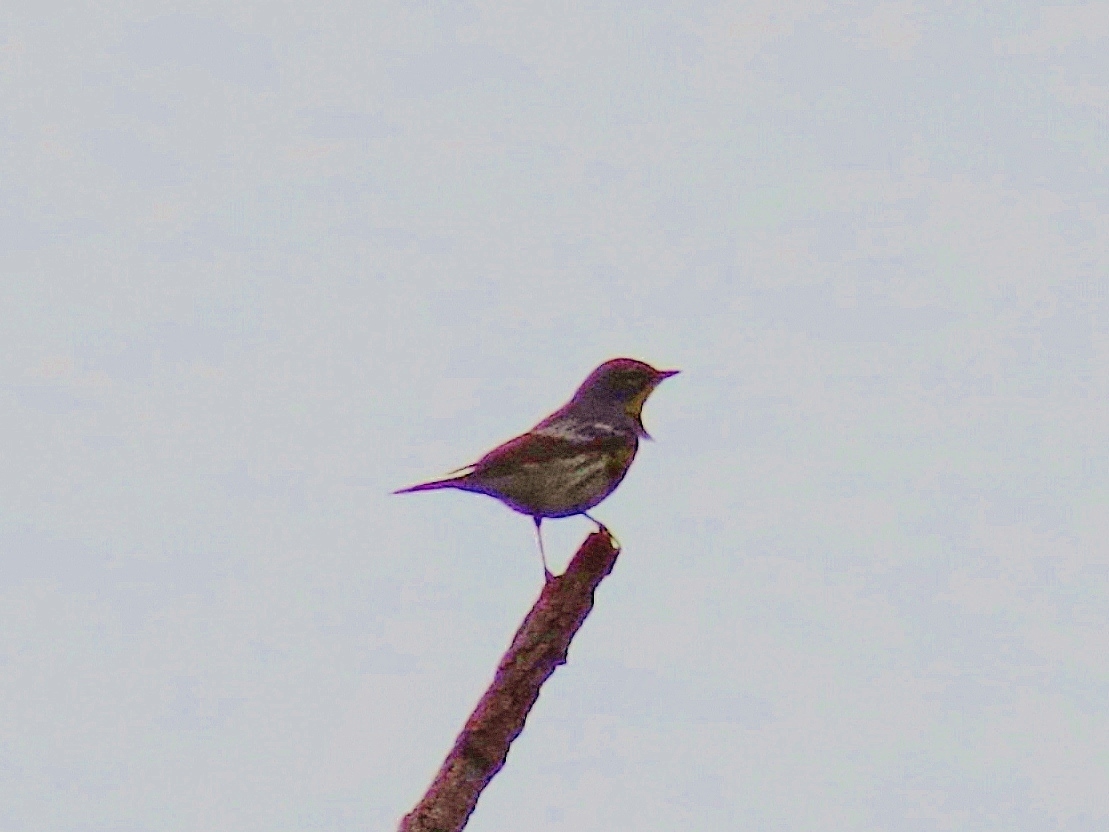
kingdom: Animalia
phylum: Chordata
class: Aves
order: Passeriformes
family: Parulidae
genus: Setophaga
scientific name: Setophaga coronata
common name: Myrtle warbler
